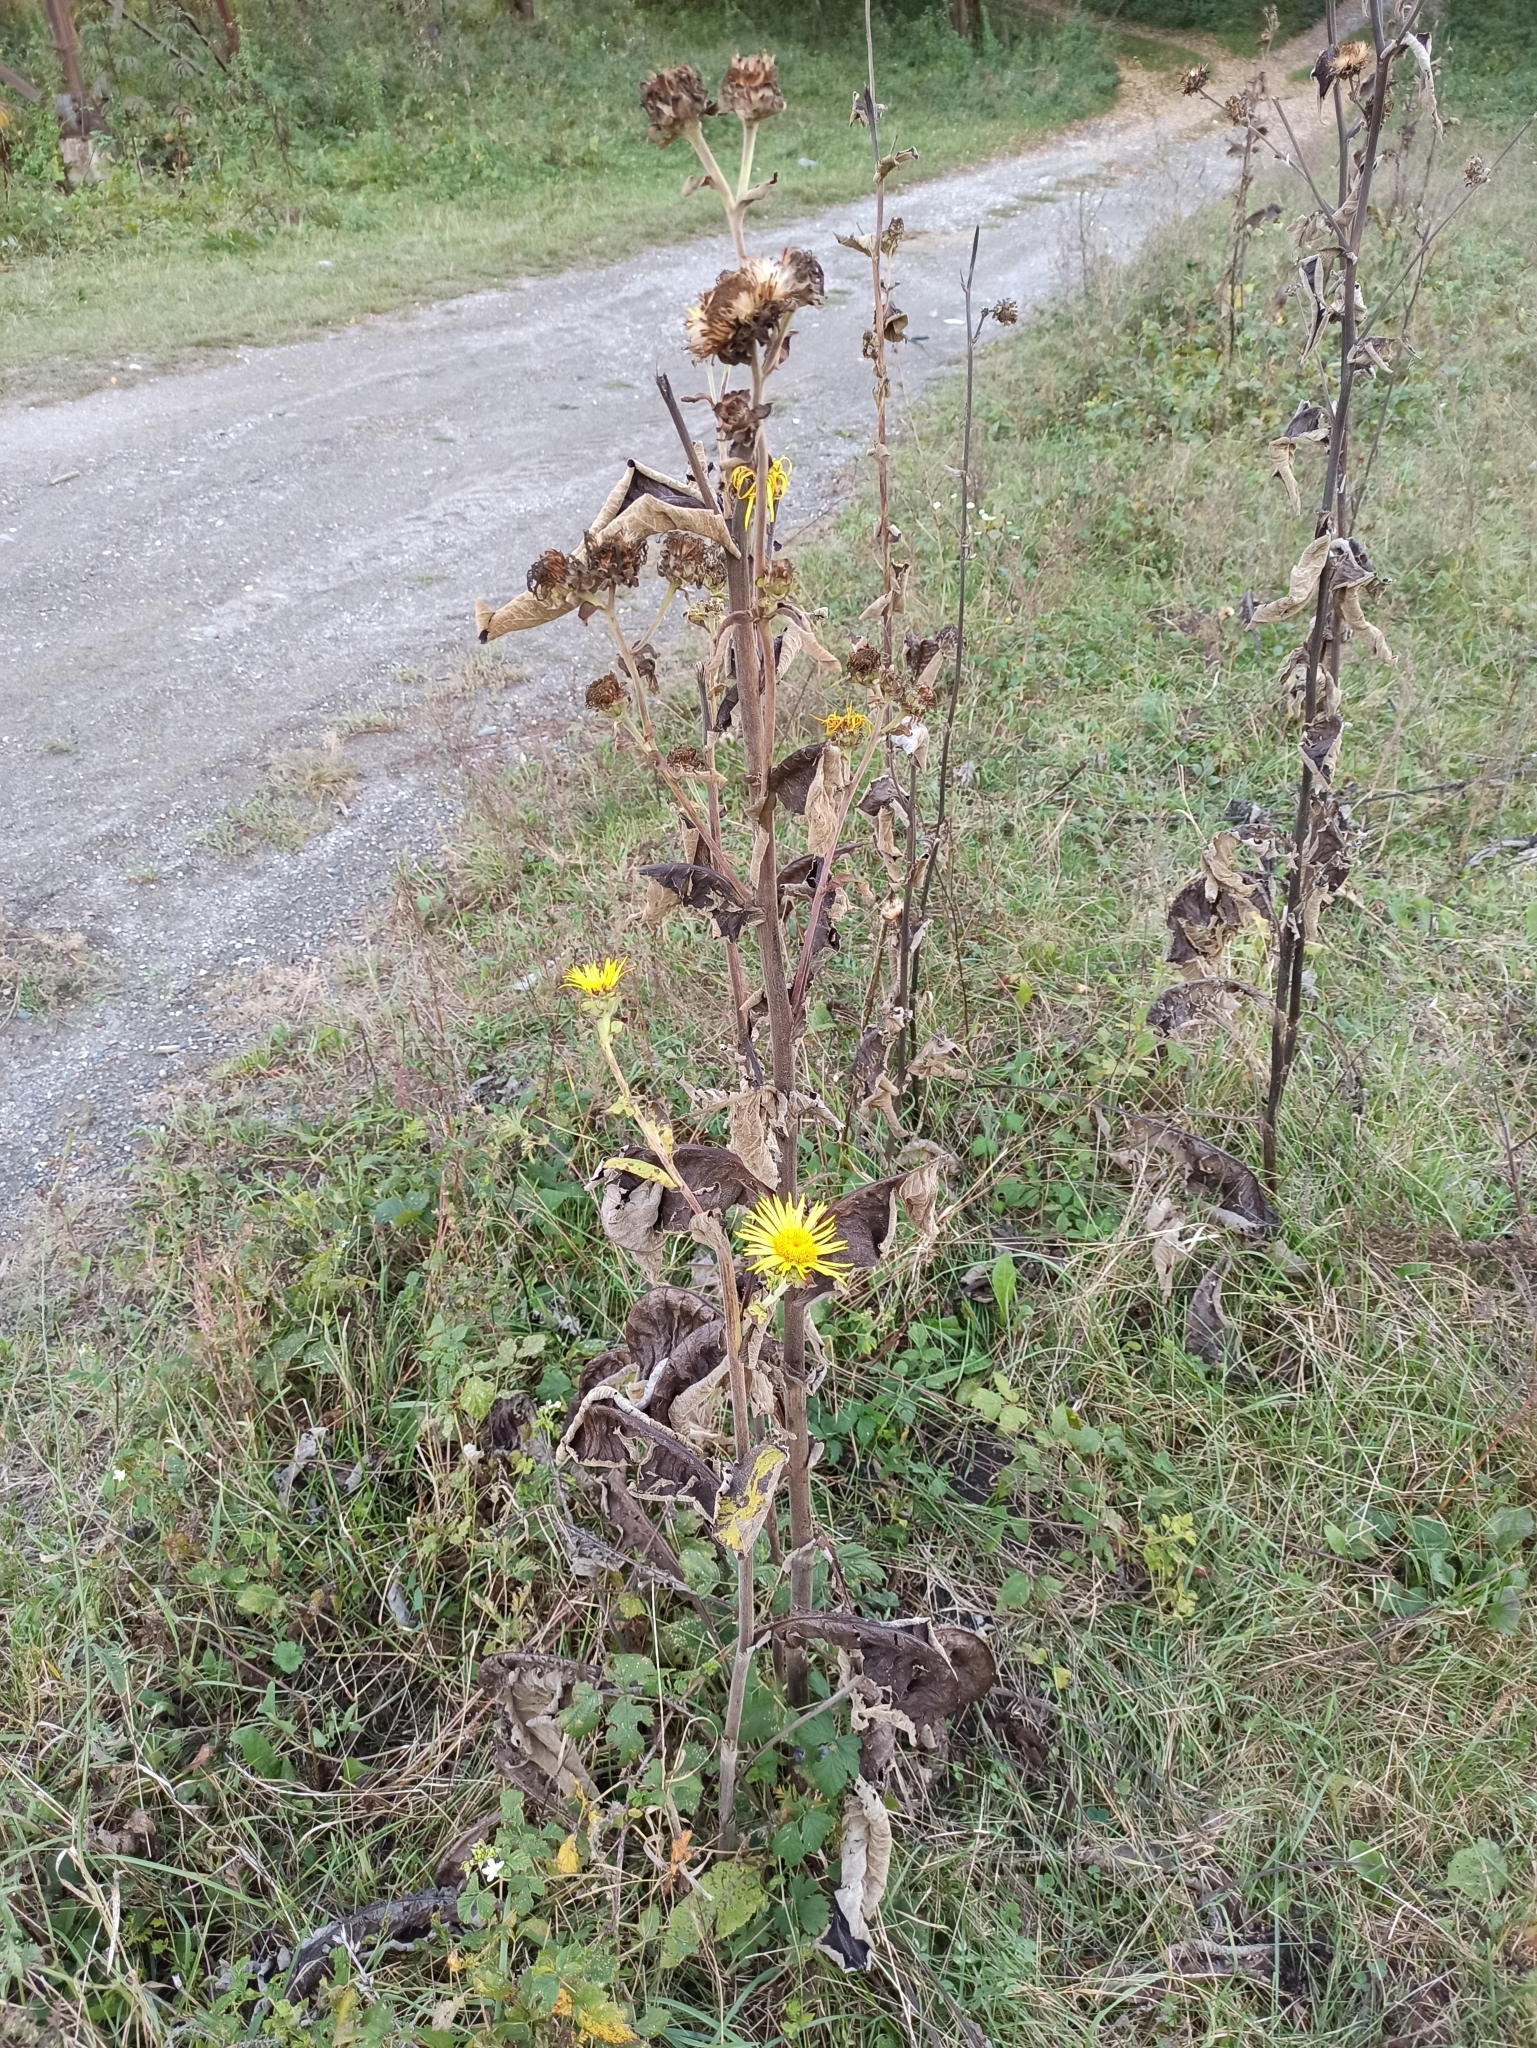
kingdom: Plantae
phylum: Tracheophyta
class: Magnoliopsida
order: Asterales
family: Asteraceae
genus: Inula
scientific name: Inula helenium
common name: Elecampane
